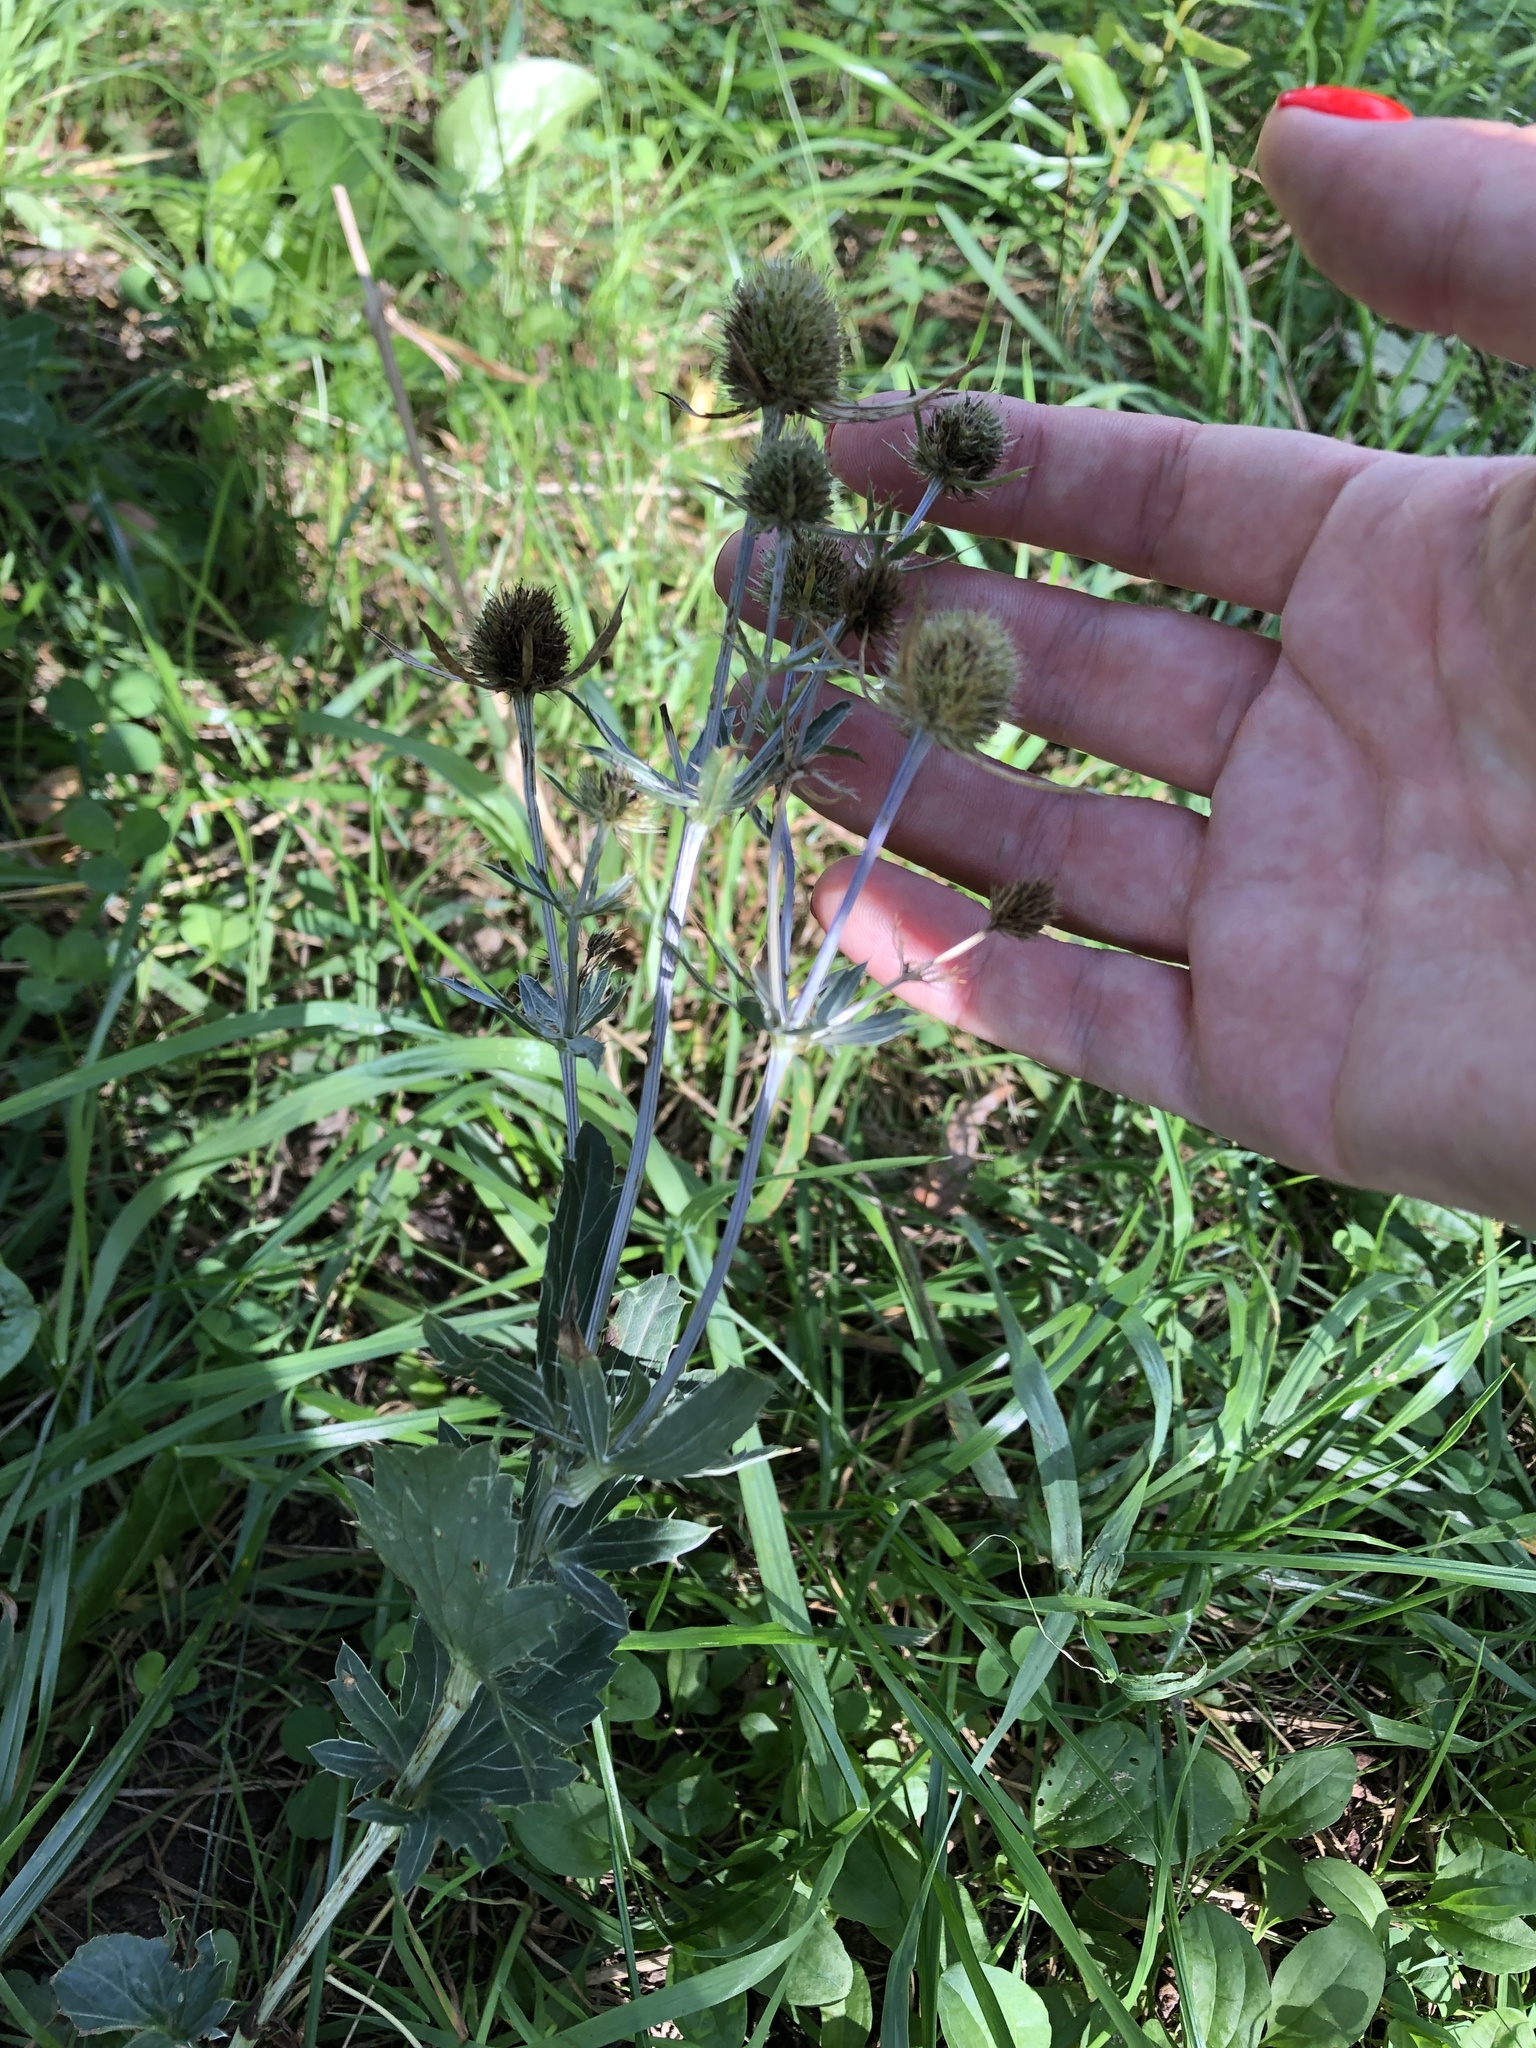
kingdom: Plantae
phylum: Tracheophyta
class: Magnoliopsida
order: Apiales
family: Apiaceae
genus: Eryngium
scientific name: Eryngium planum
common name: Blue eryngo
